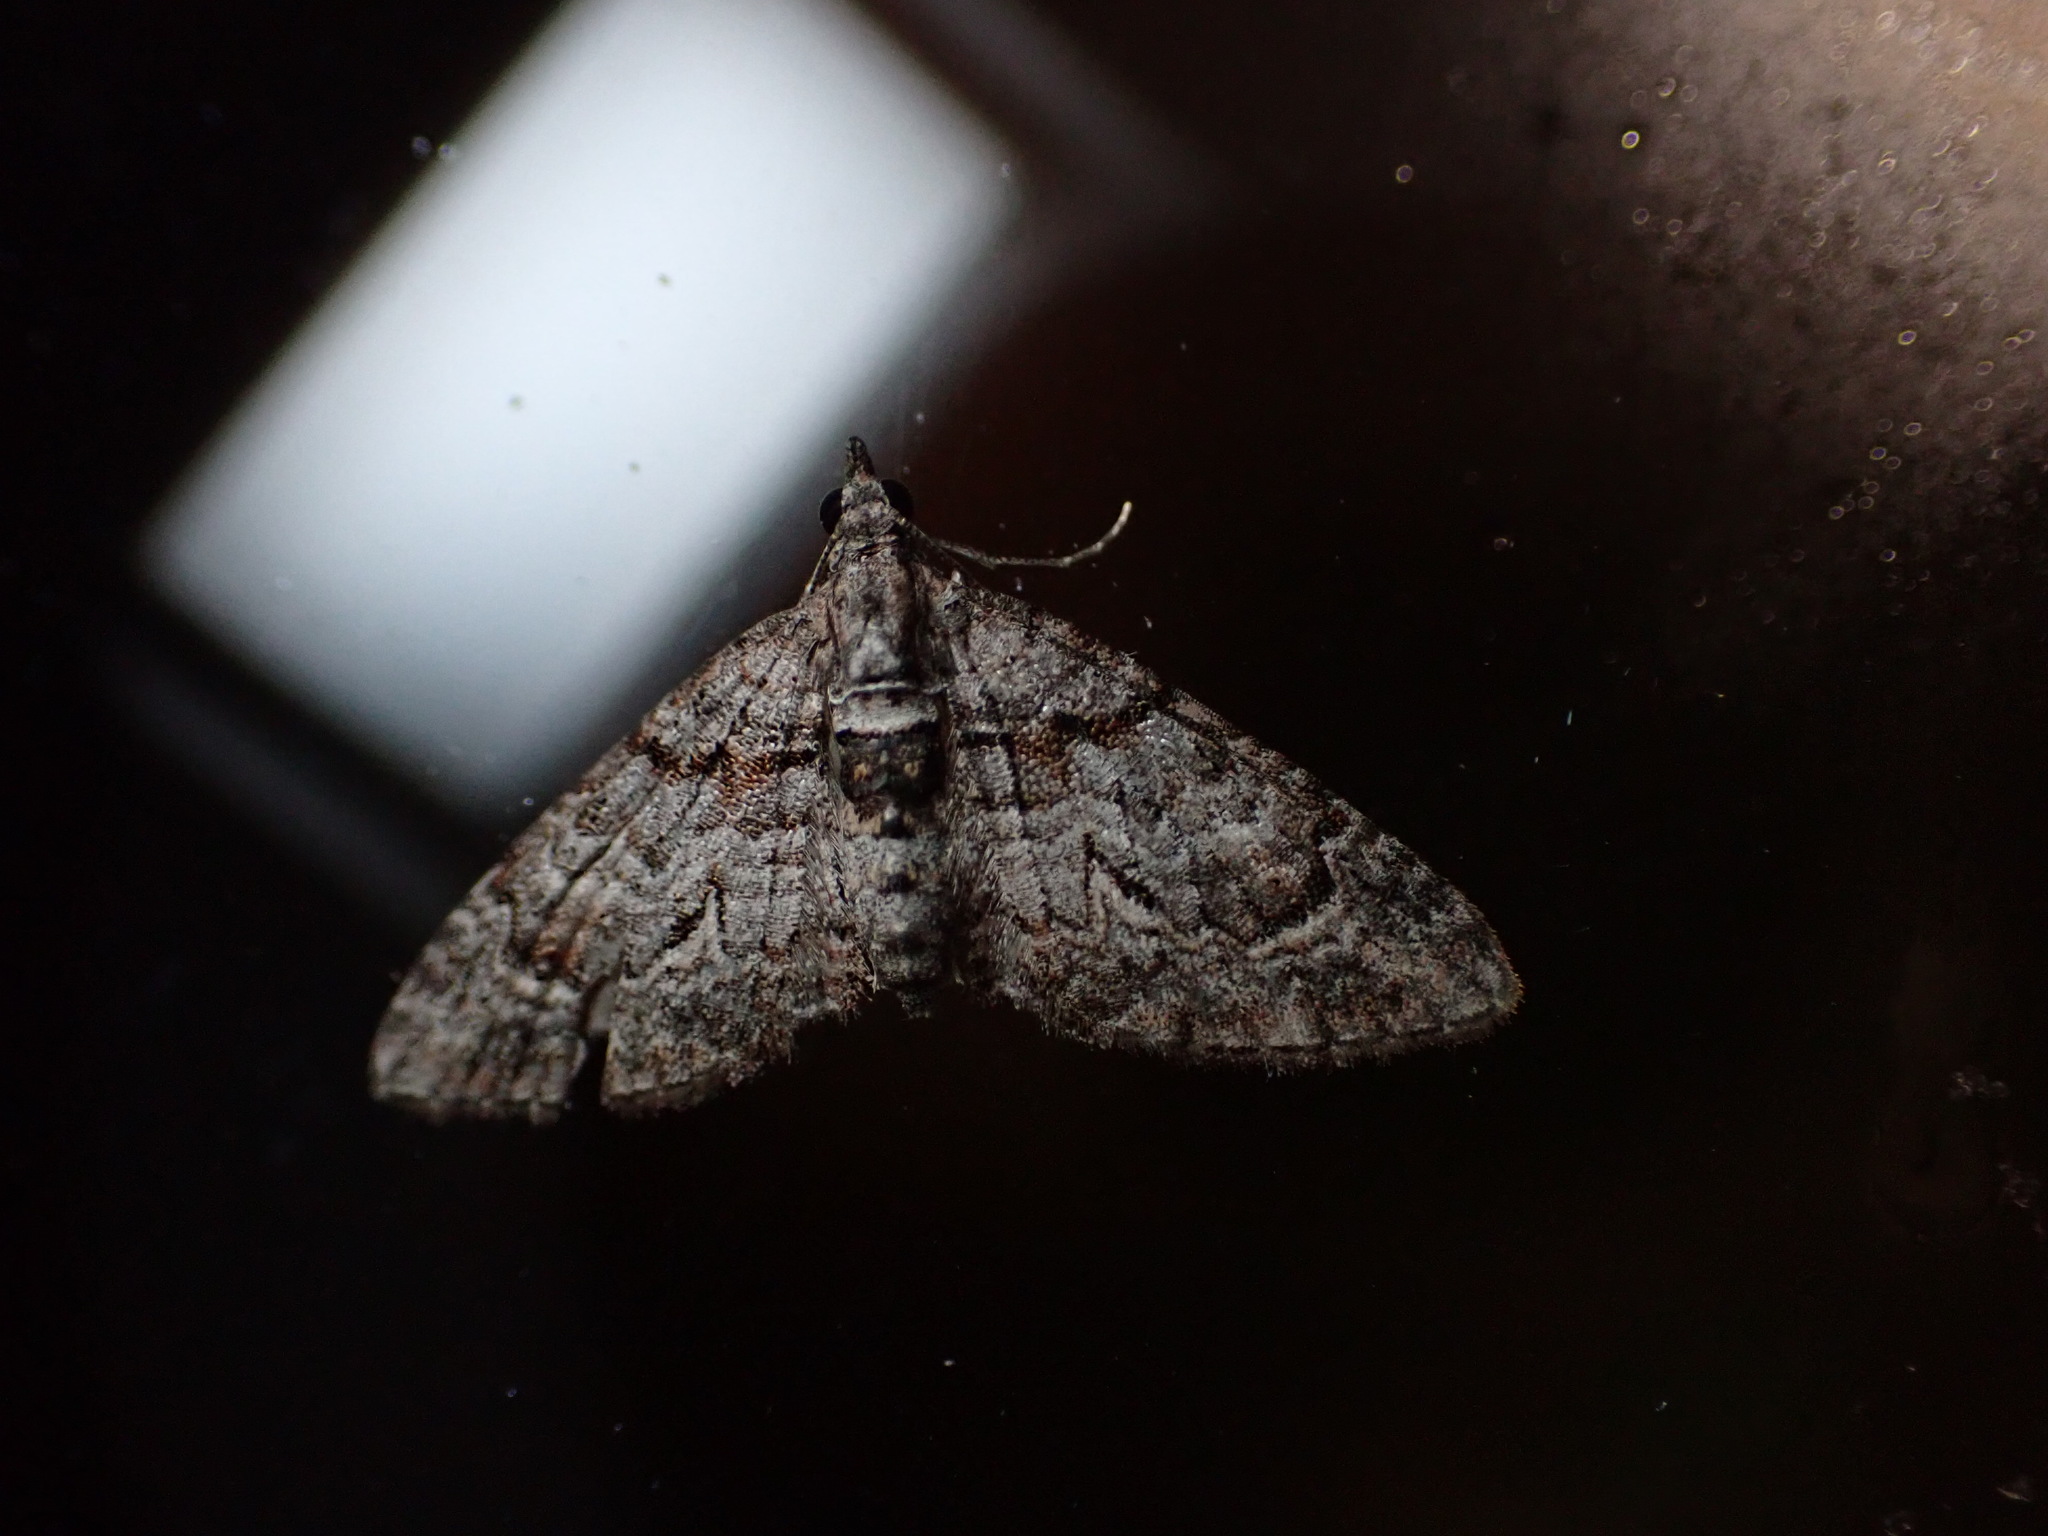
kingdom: Animalia
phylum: Arthropoda
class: Insecta
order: Lepidoptera
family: Geometridae
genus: Phrissogonus
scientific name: Phrissogonus laticostata
